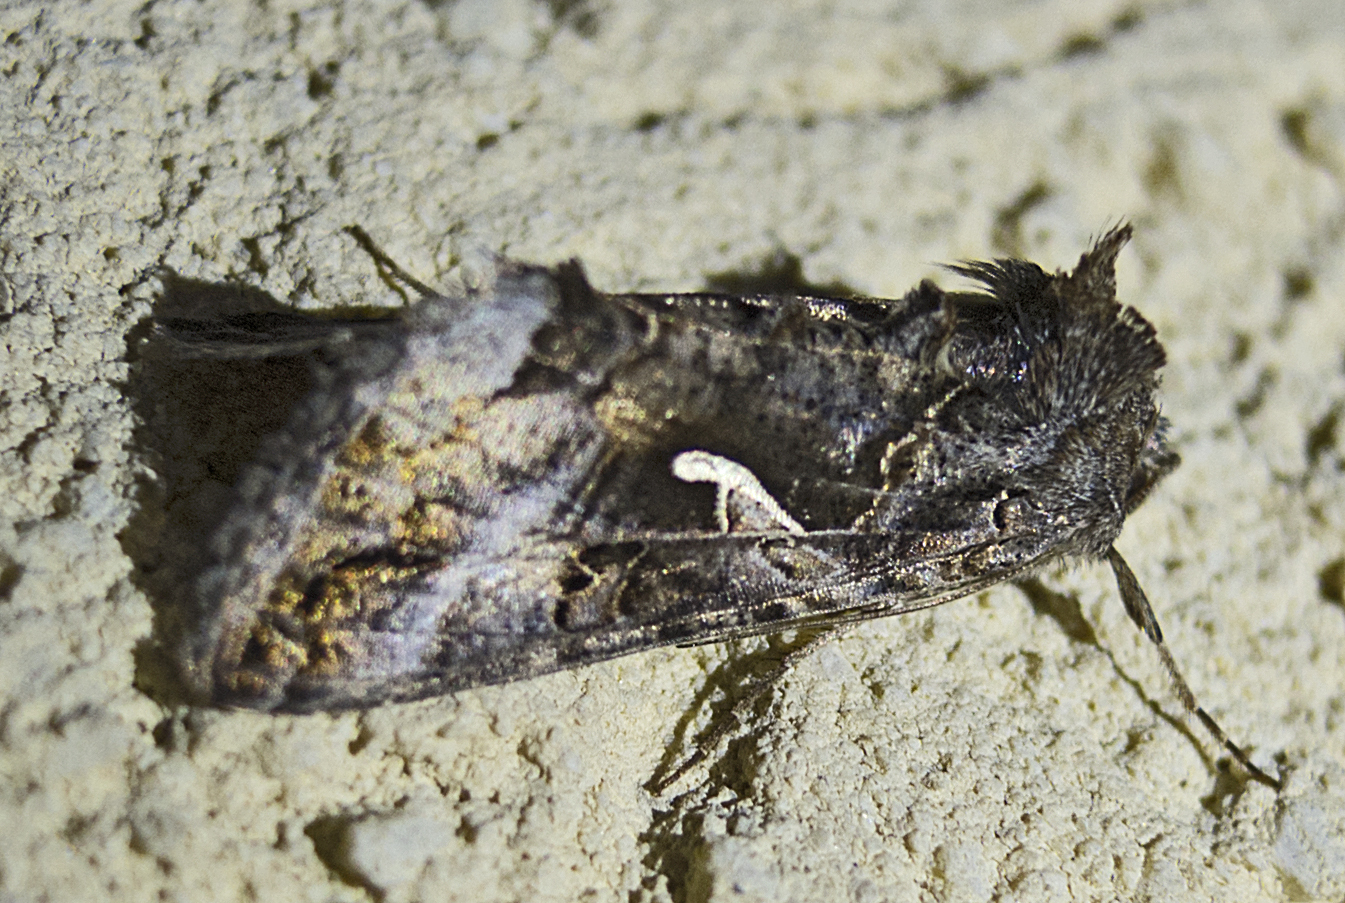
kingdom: Animalia
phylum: Arthropoda
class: Insecta
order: Lepidoptera
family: Noctuidae
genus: Autographa
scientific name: Autographa gamma
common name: Silver y
